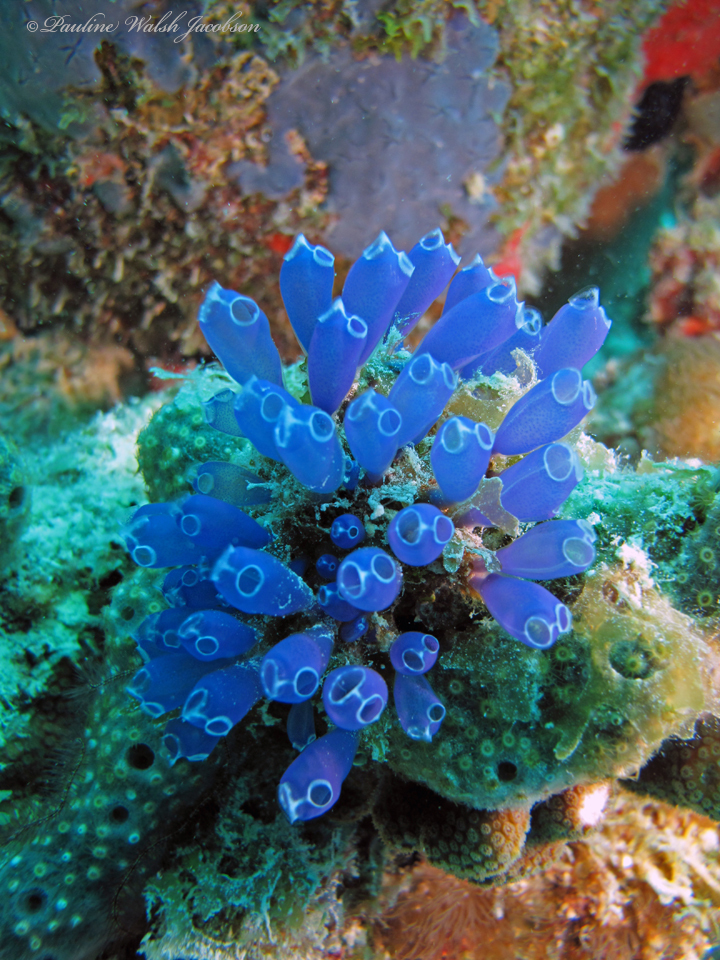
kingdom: Animalia
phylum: Chordata
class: Ascidiacea
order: Aplousobranchia
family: Clavelinidae
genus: Clavelina
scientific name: Clavelina puertosecensis
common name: Blue bell tunicate
